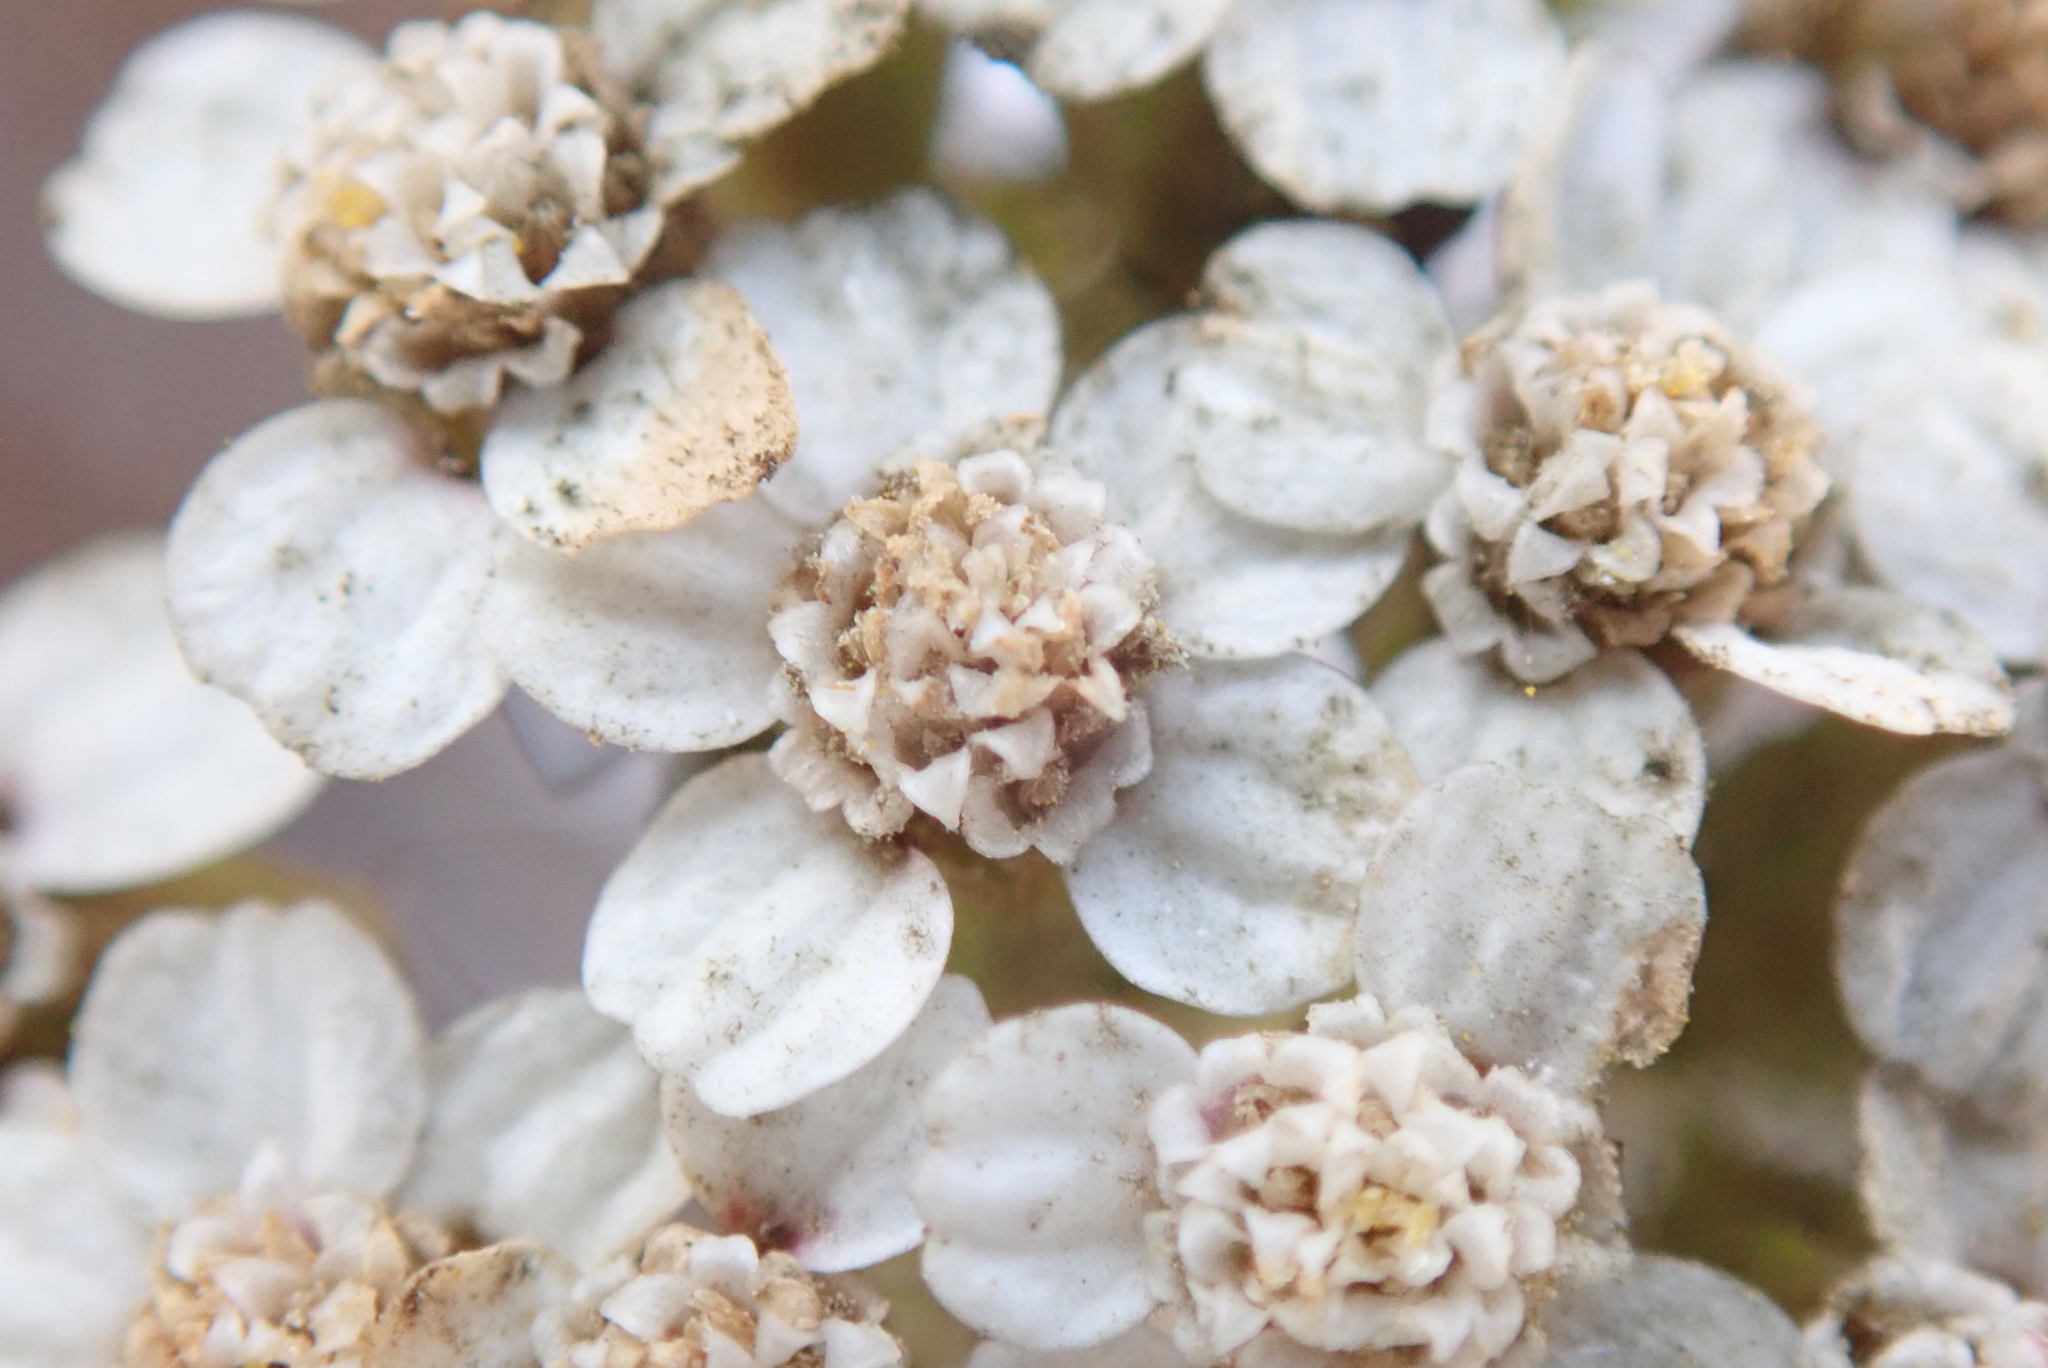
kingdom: Plantae
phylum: Tracheophyta
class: Magnoliopsida
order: Asterales
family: Asteraceae
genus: Achillea
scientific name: Achillea millefolium
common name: Yarrow
